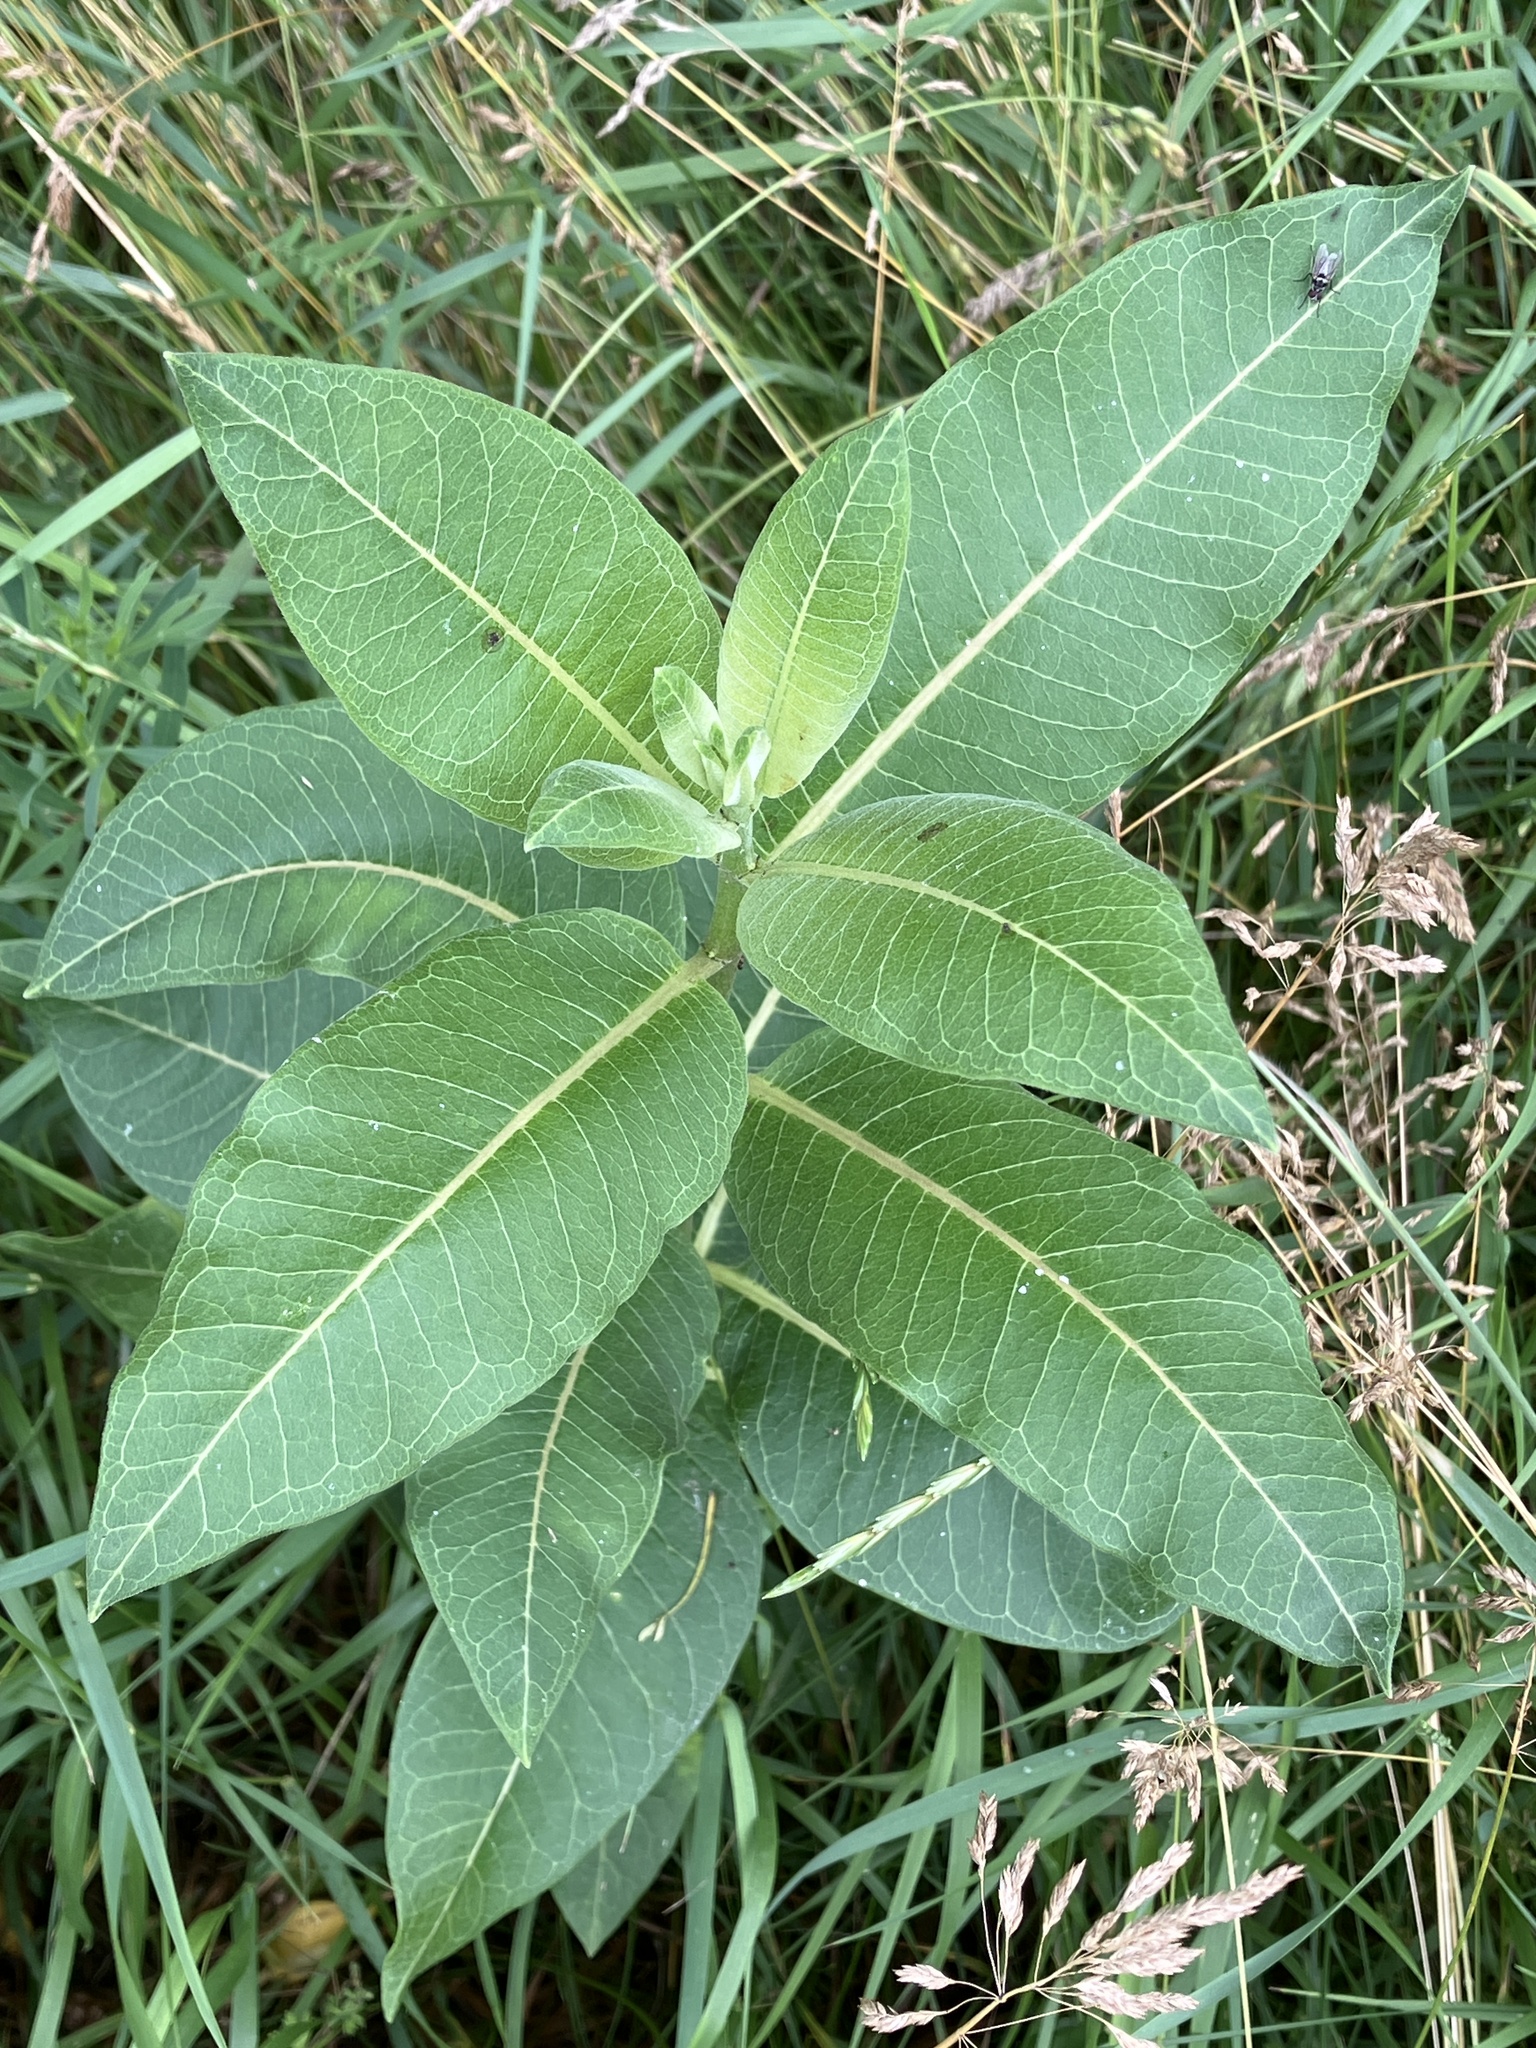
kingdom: Plantae
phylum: Tracheophyta
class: Magnoliopsida
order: Gentianales
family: Apocynaceae
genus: Asclepias
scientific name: Asclepias syriaca
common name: Common milkweed
